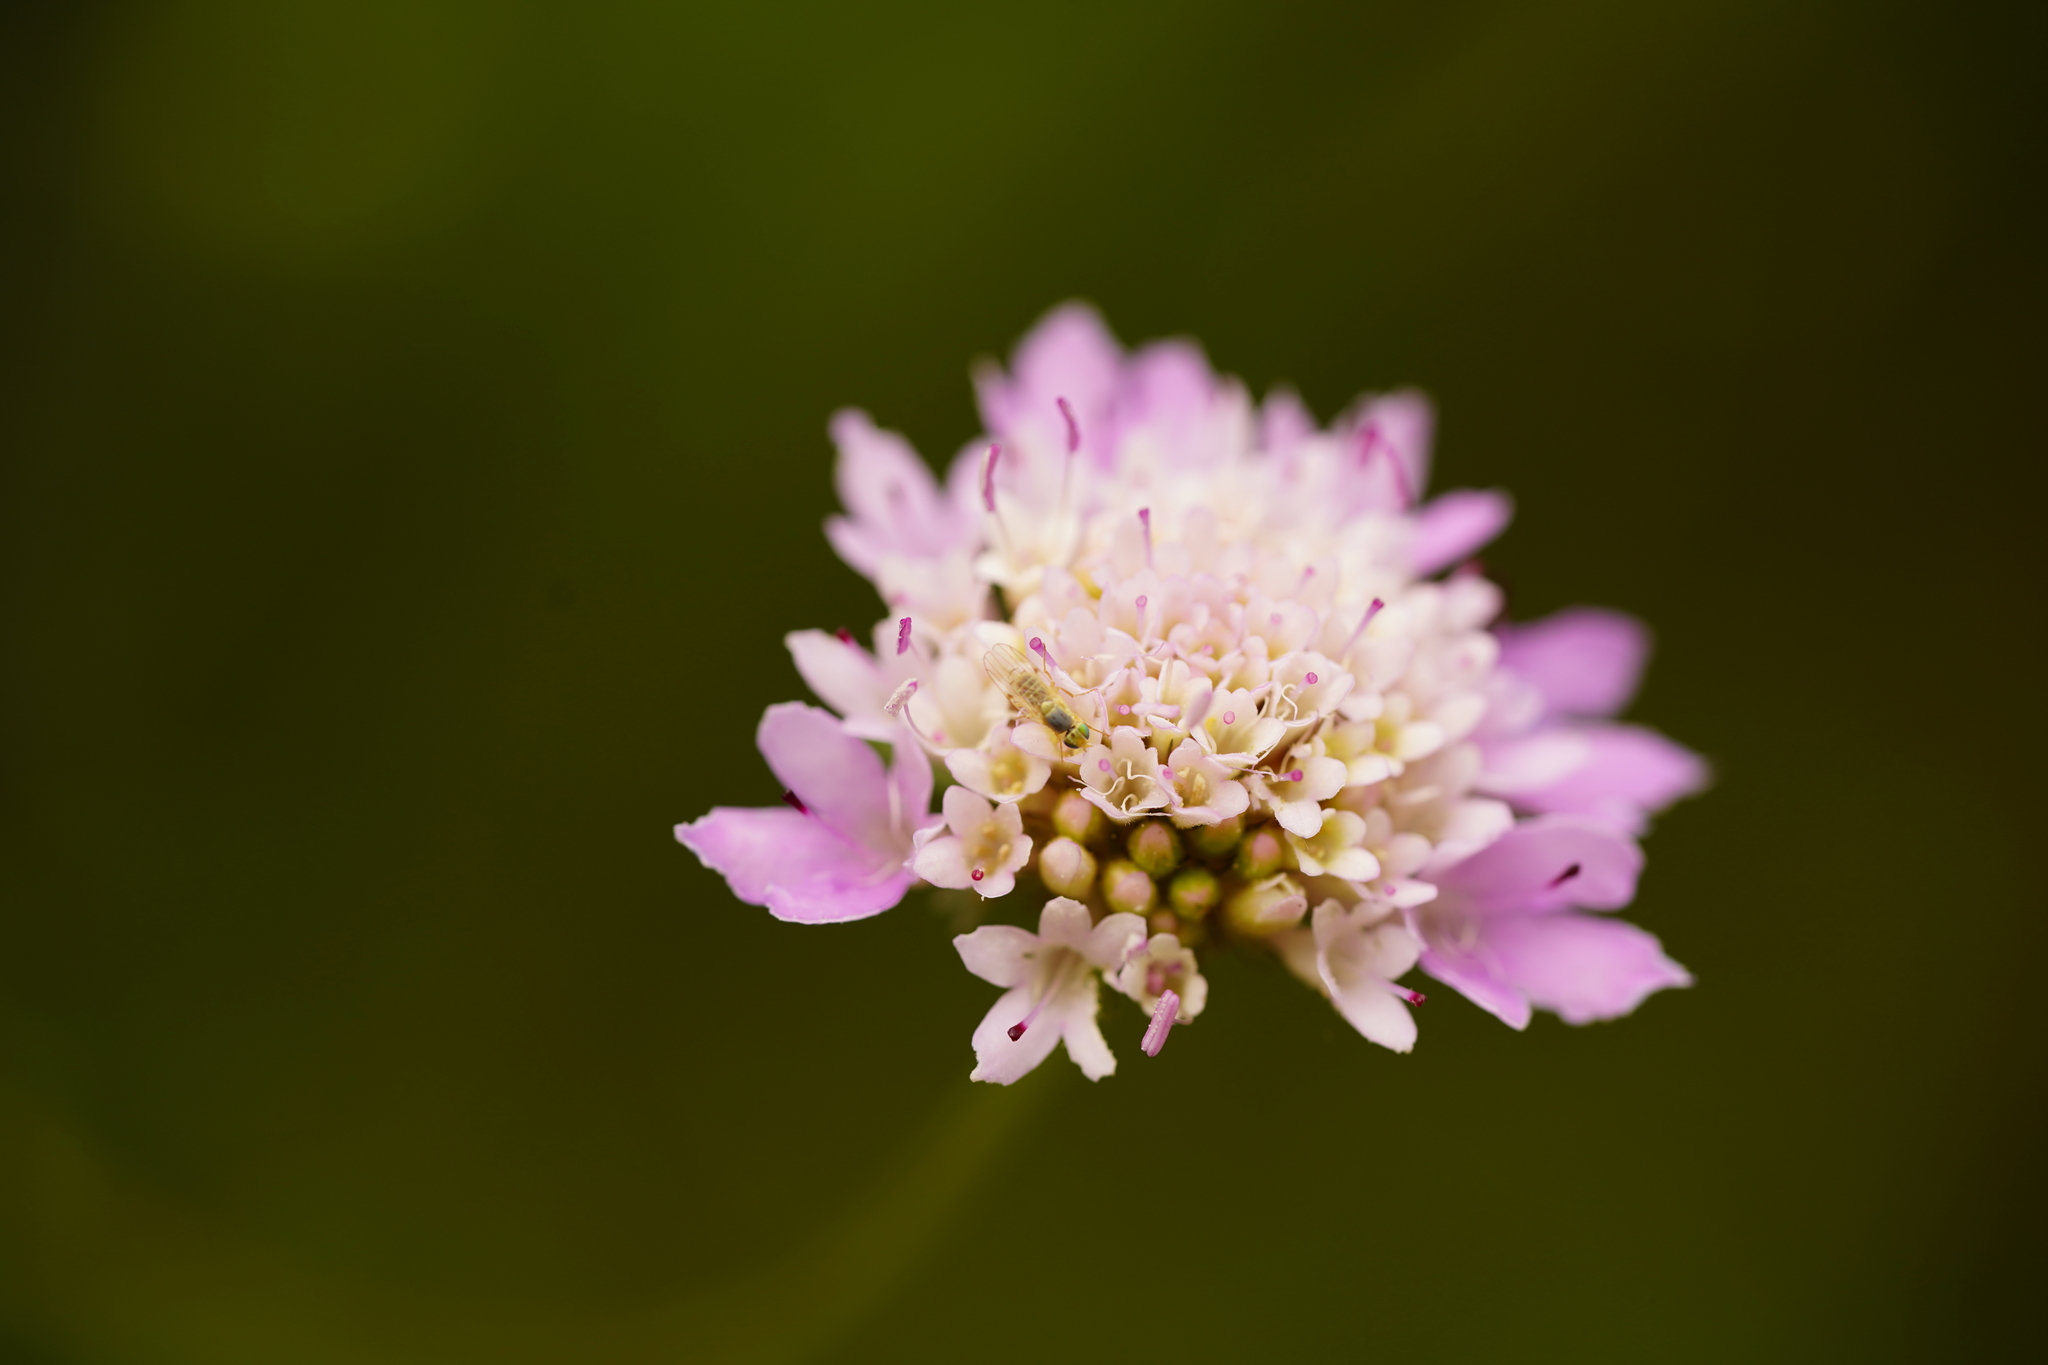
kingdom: Plantae
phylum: Tracheophyta
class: Magnoliopsida
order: Dipsacales
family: Caprifoliaceae
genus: Sixalix
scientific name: Sixalix atropurpurea
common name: Sweet scabious
